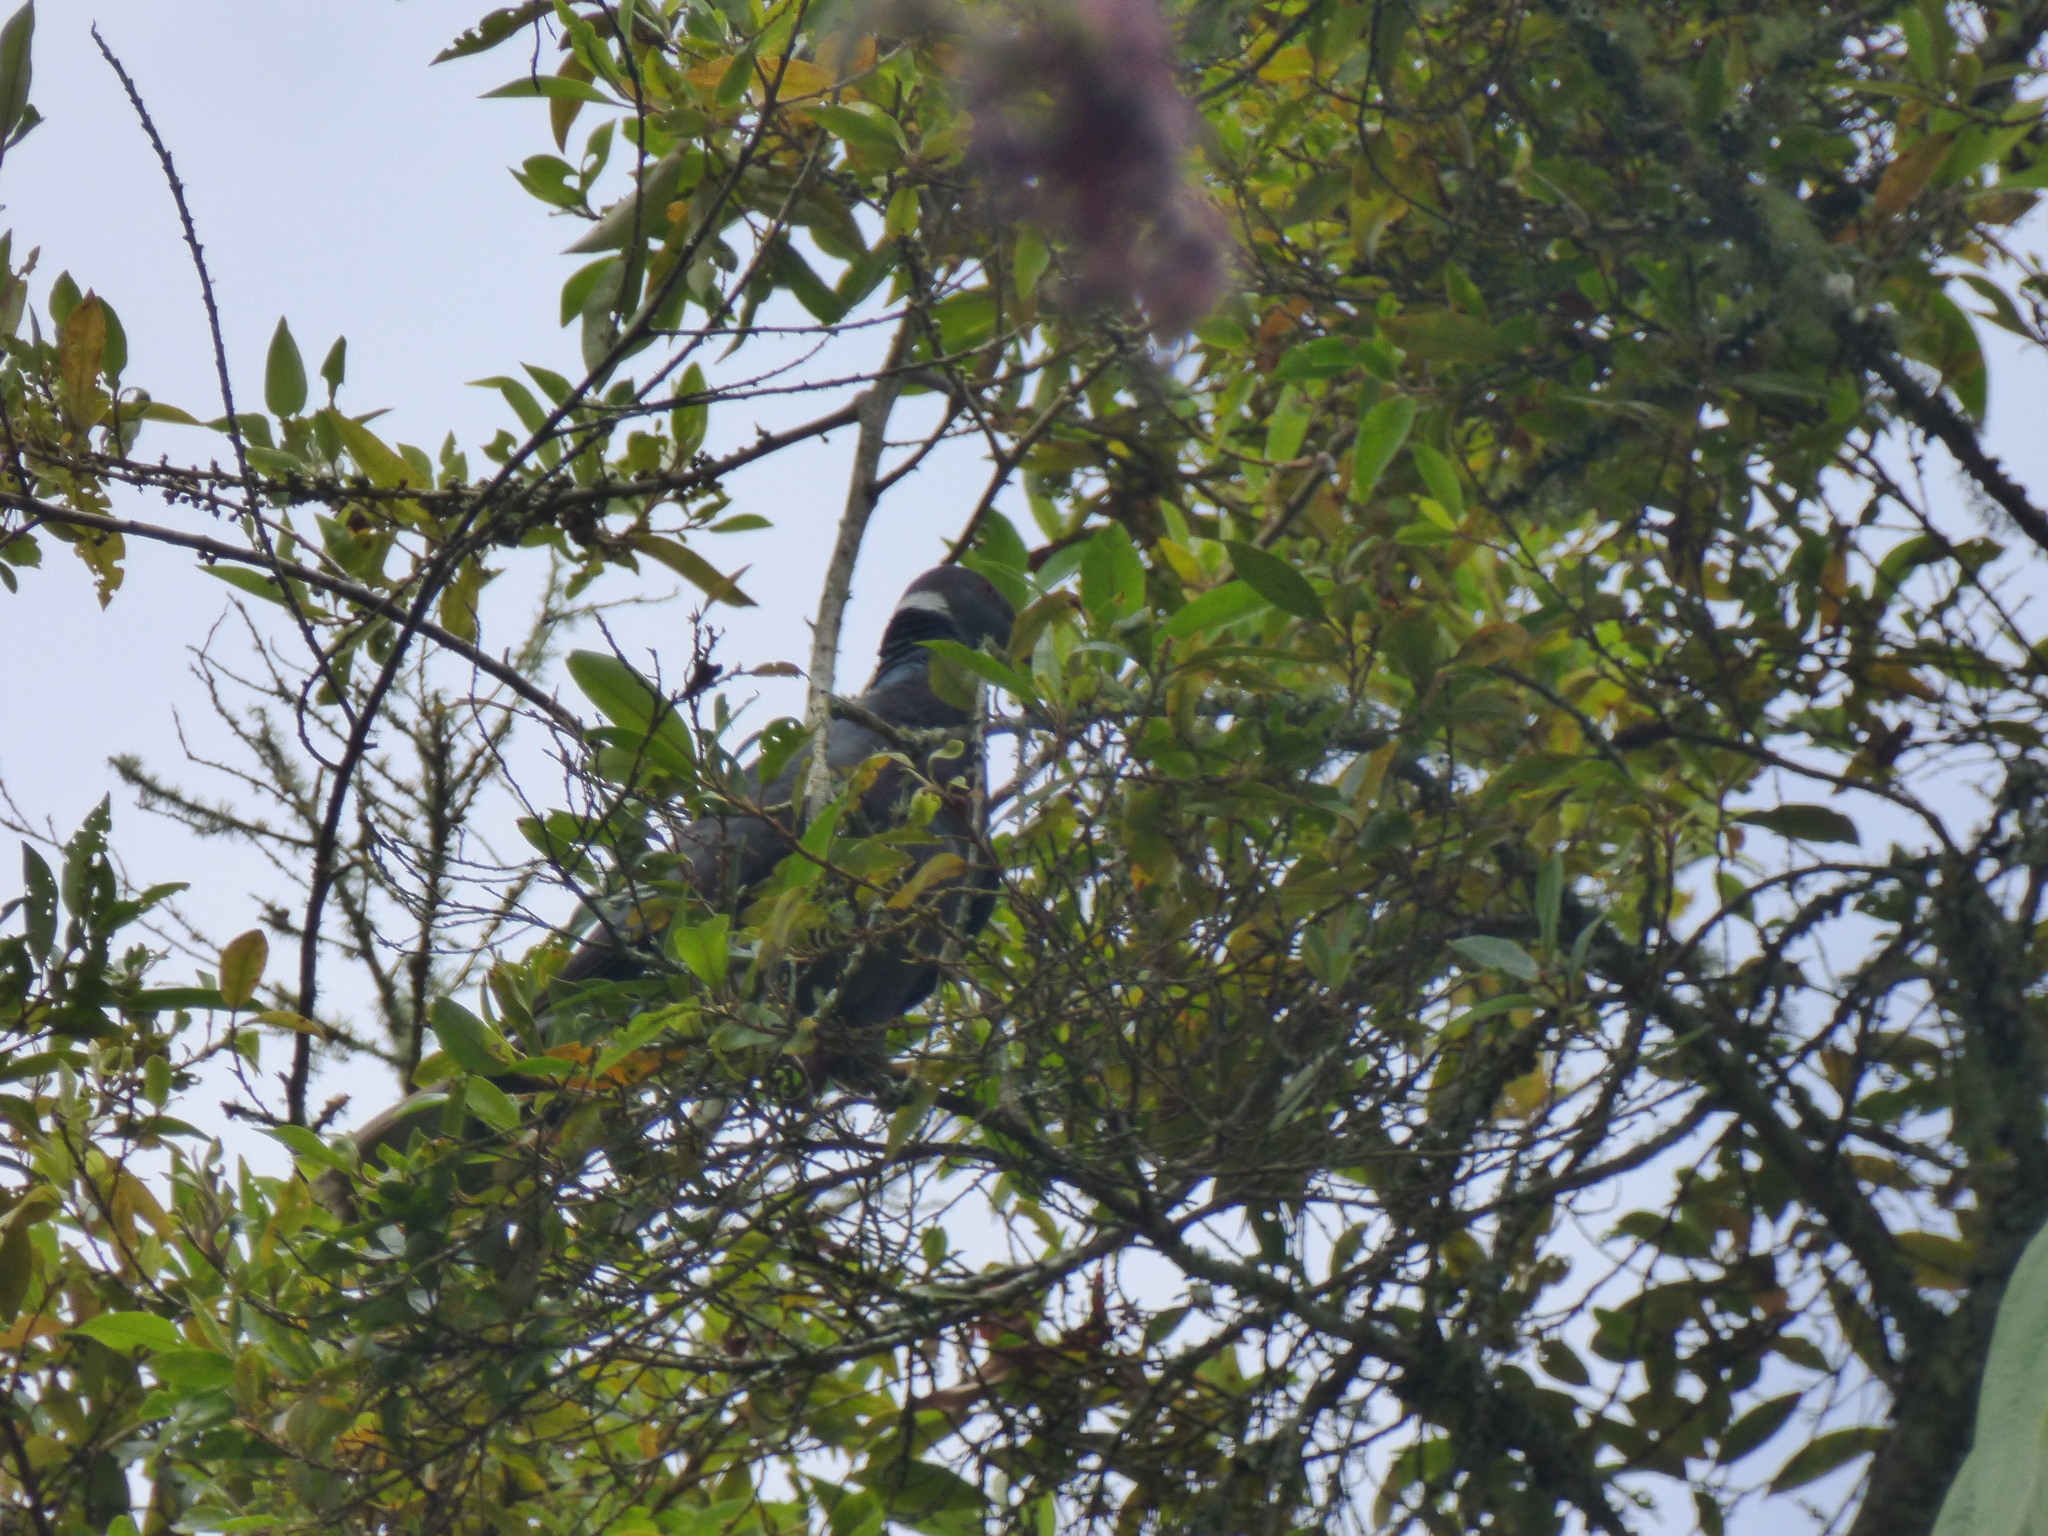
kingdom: Animalia
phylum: Chordata
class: Aves
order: Columbiformes
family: Columbidae
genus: Patagioenas
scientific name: Patagioenas fasciata
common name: Band-tailed pigeon
